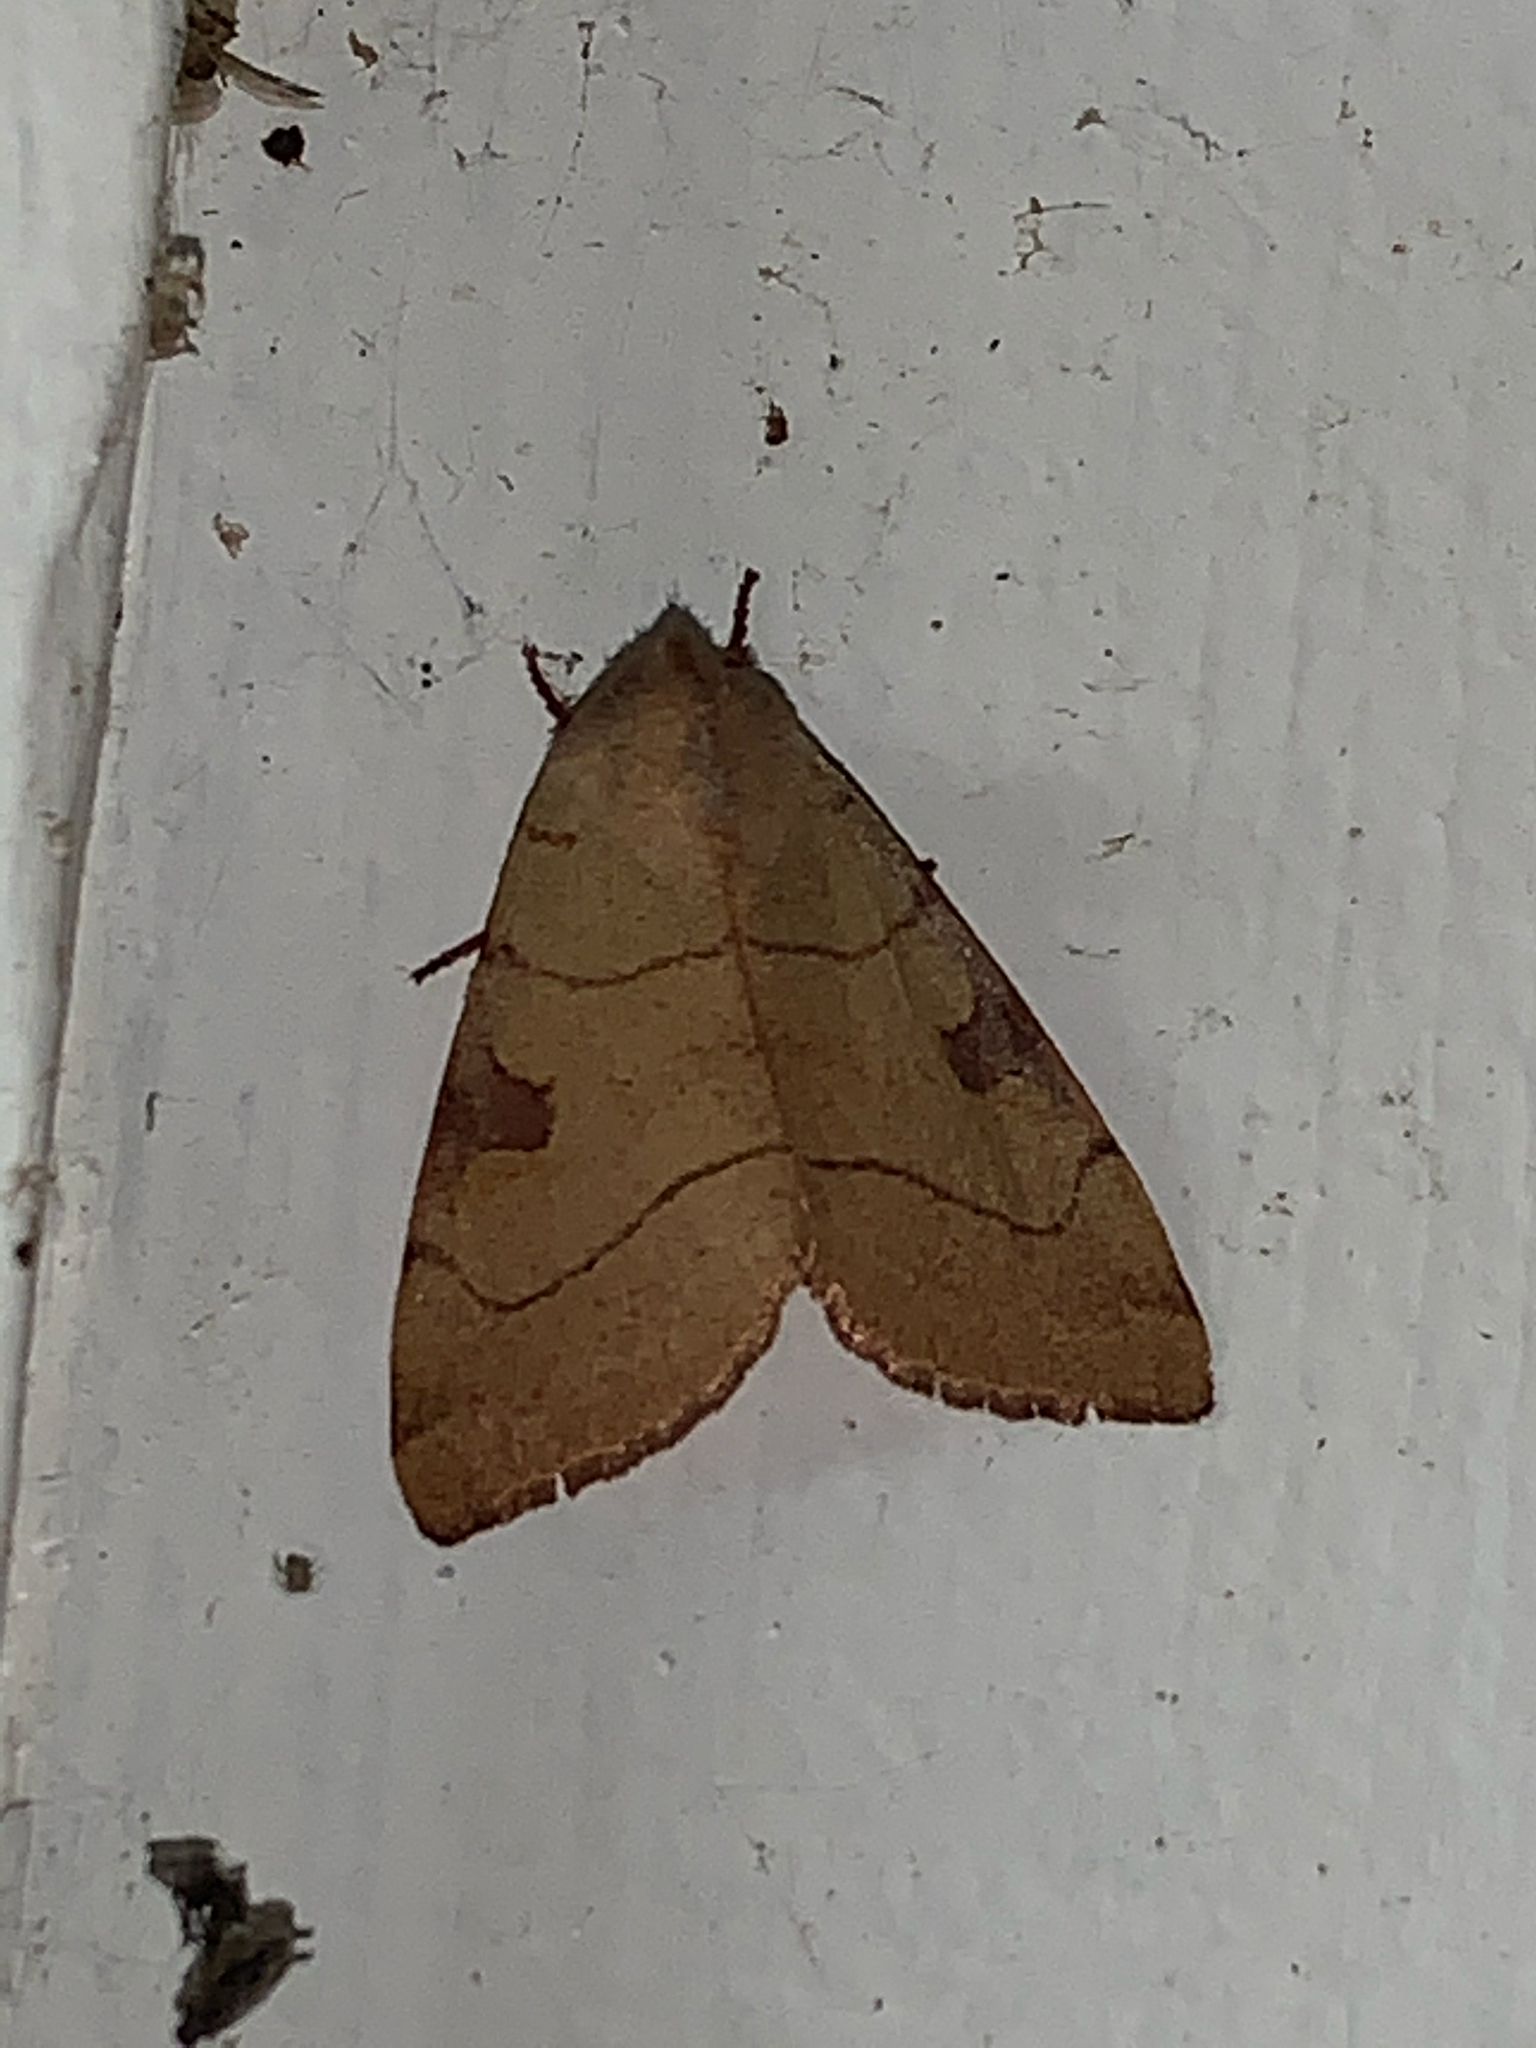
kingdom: Animalia
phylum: Arthropoda
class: Insecta
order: Lepidoptera
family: Noctuidae
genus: Choephora
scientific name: Choephora fungorum
